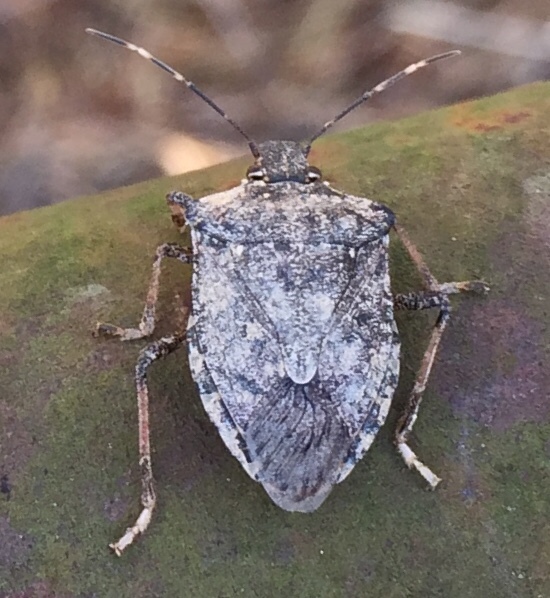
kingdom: Animalia
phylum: Arthropoda
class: Insecta
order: Hemiptera
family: Pentatomidae
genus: Halyomorpha
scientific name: Halyomorpha halys
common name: Brown marmorated stink bug
